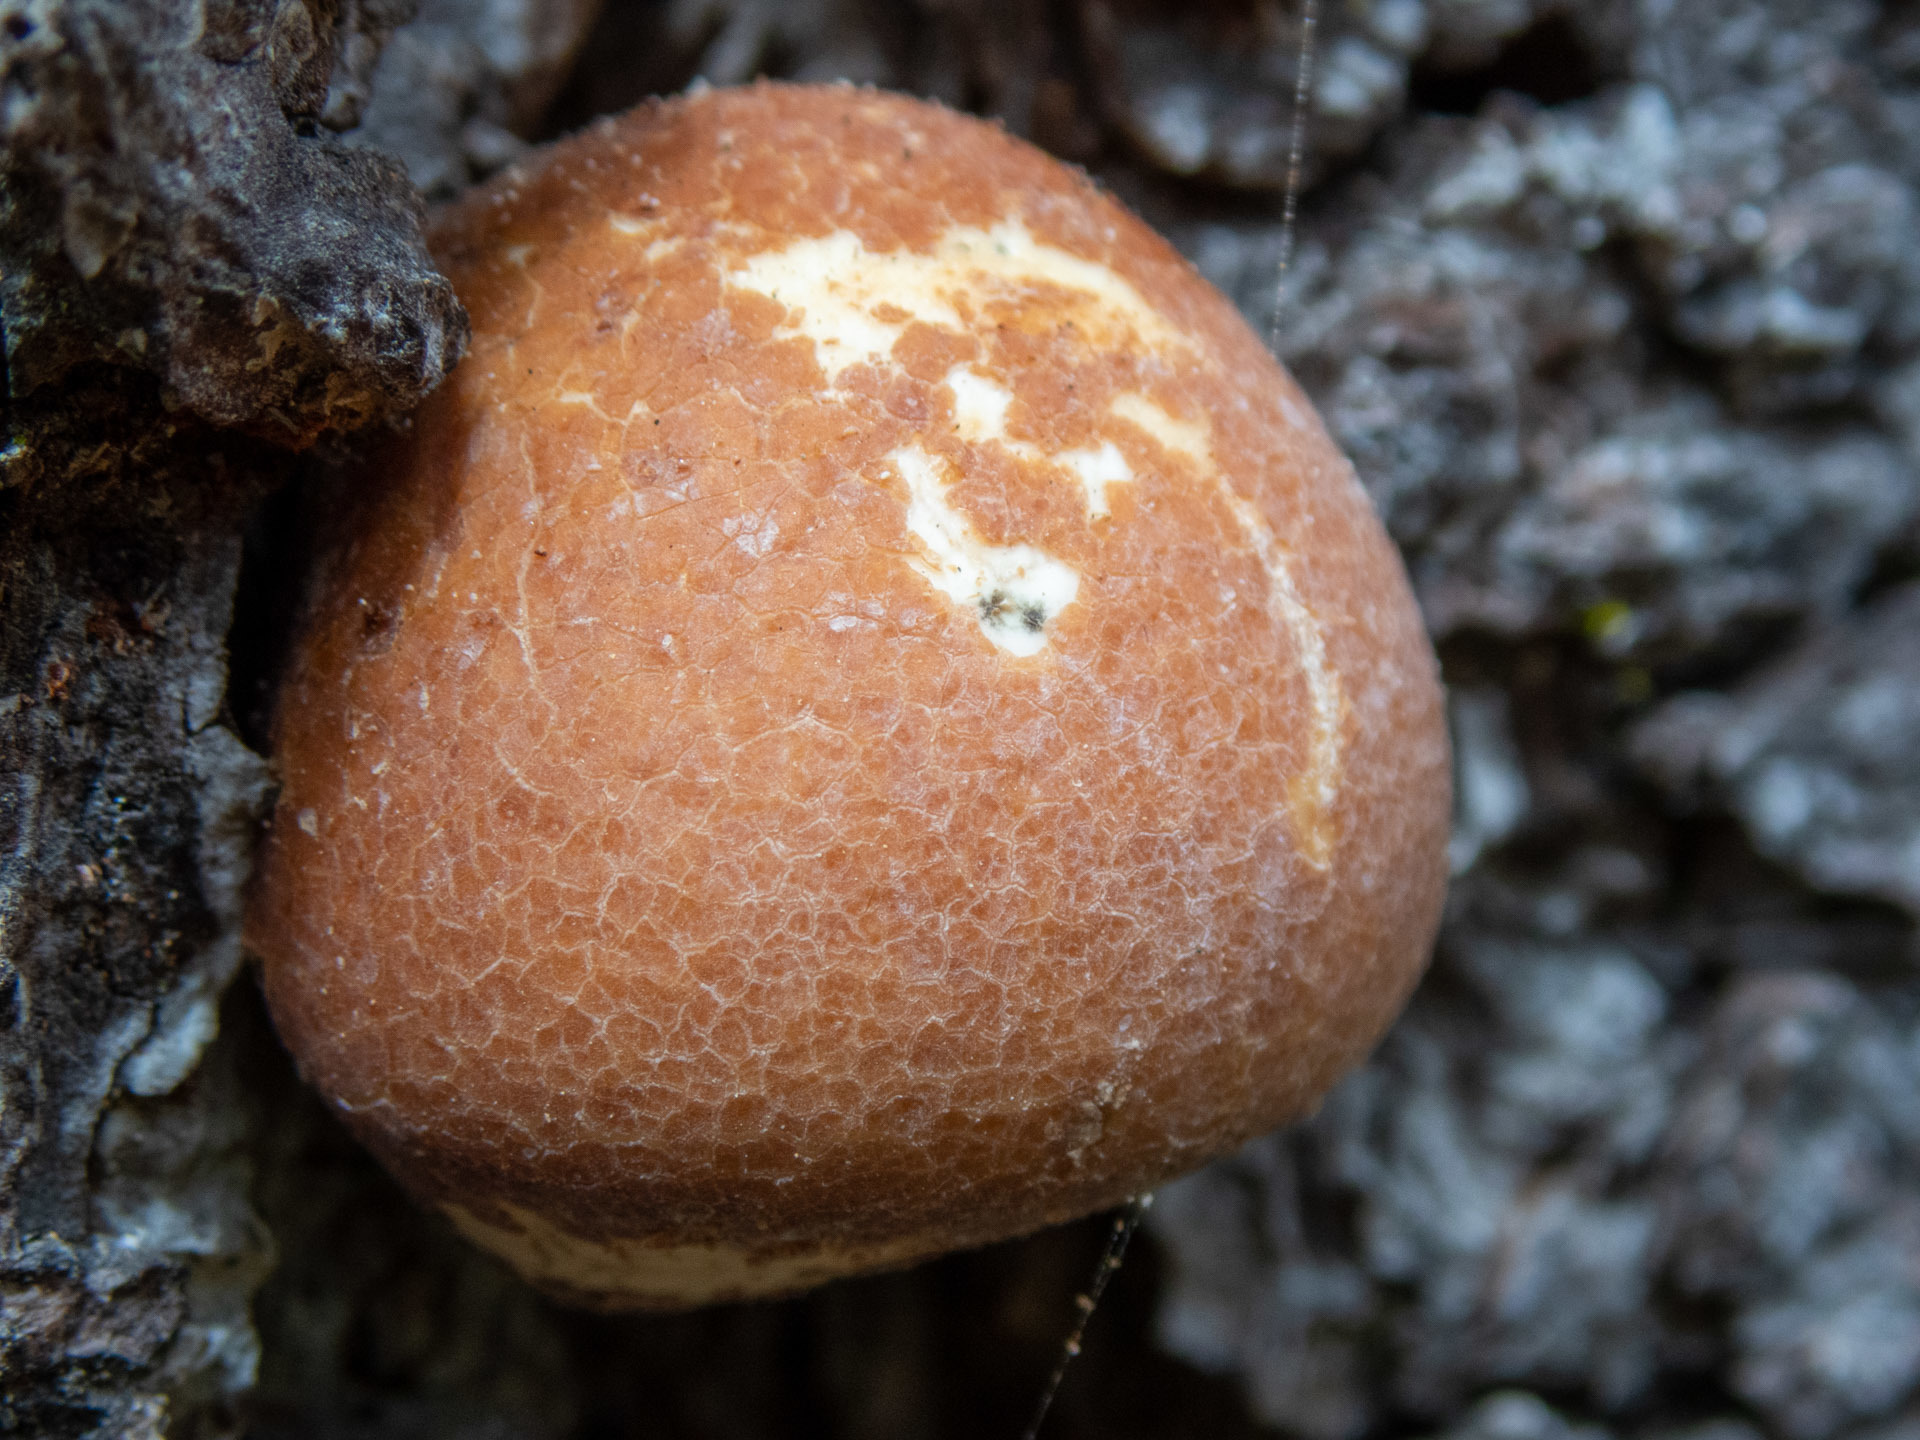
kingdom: Fungi
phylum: Basidiomycota
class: Agaricomycetes
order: Polyporales
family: Polyporaceae
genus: Cryptoporus
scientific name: Cryptoporus volvatus
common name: Veiled polypore
